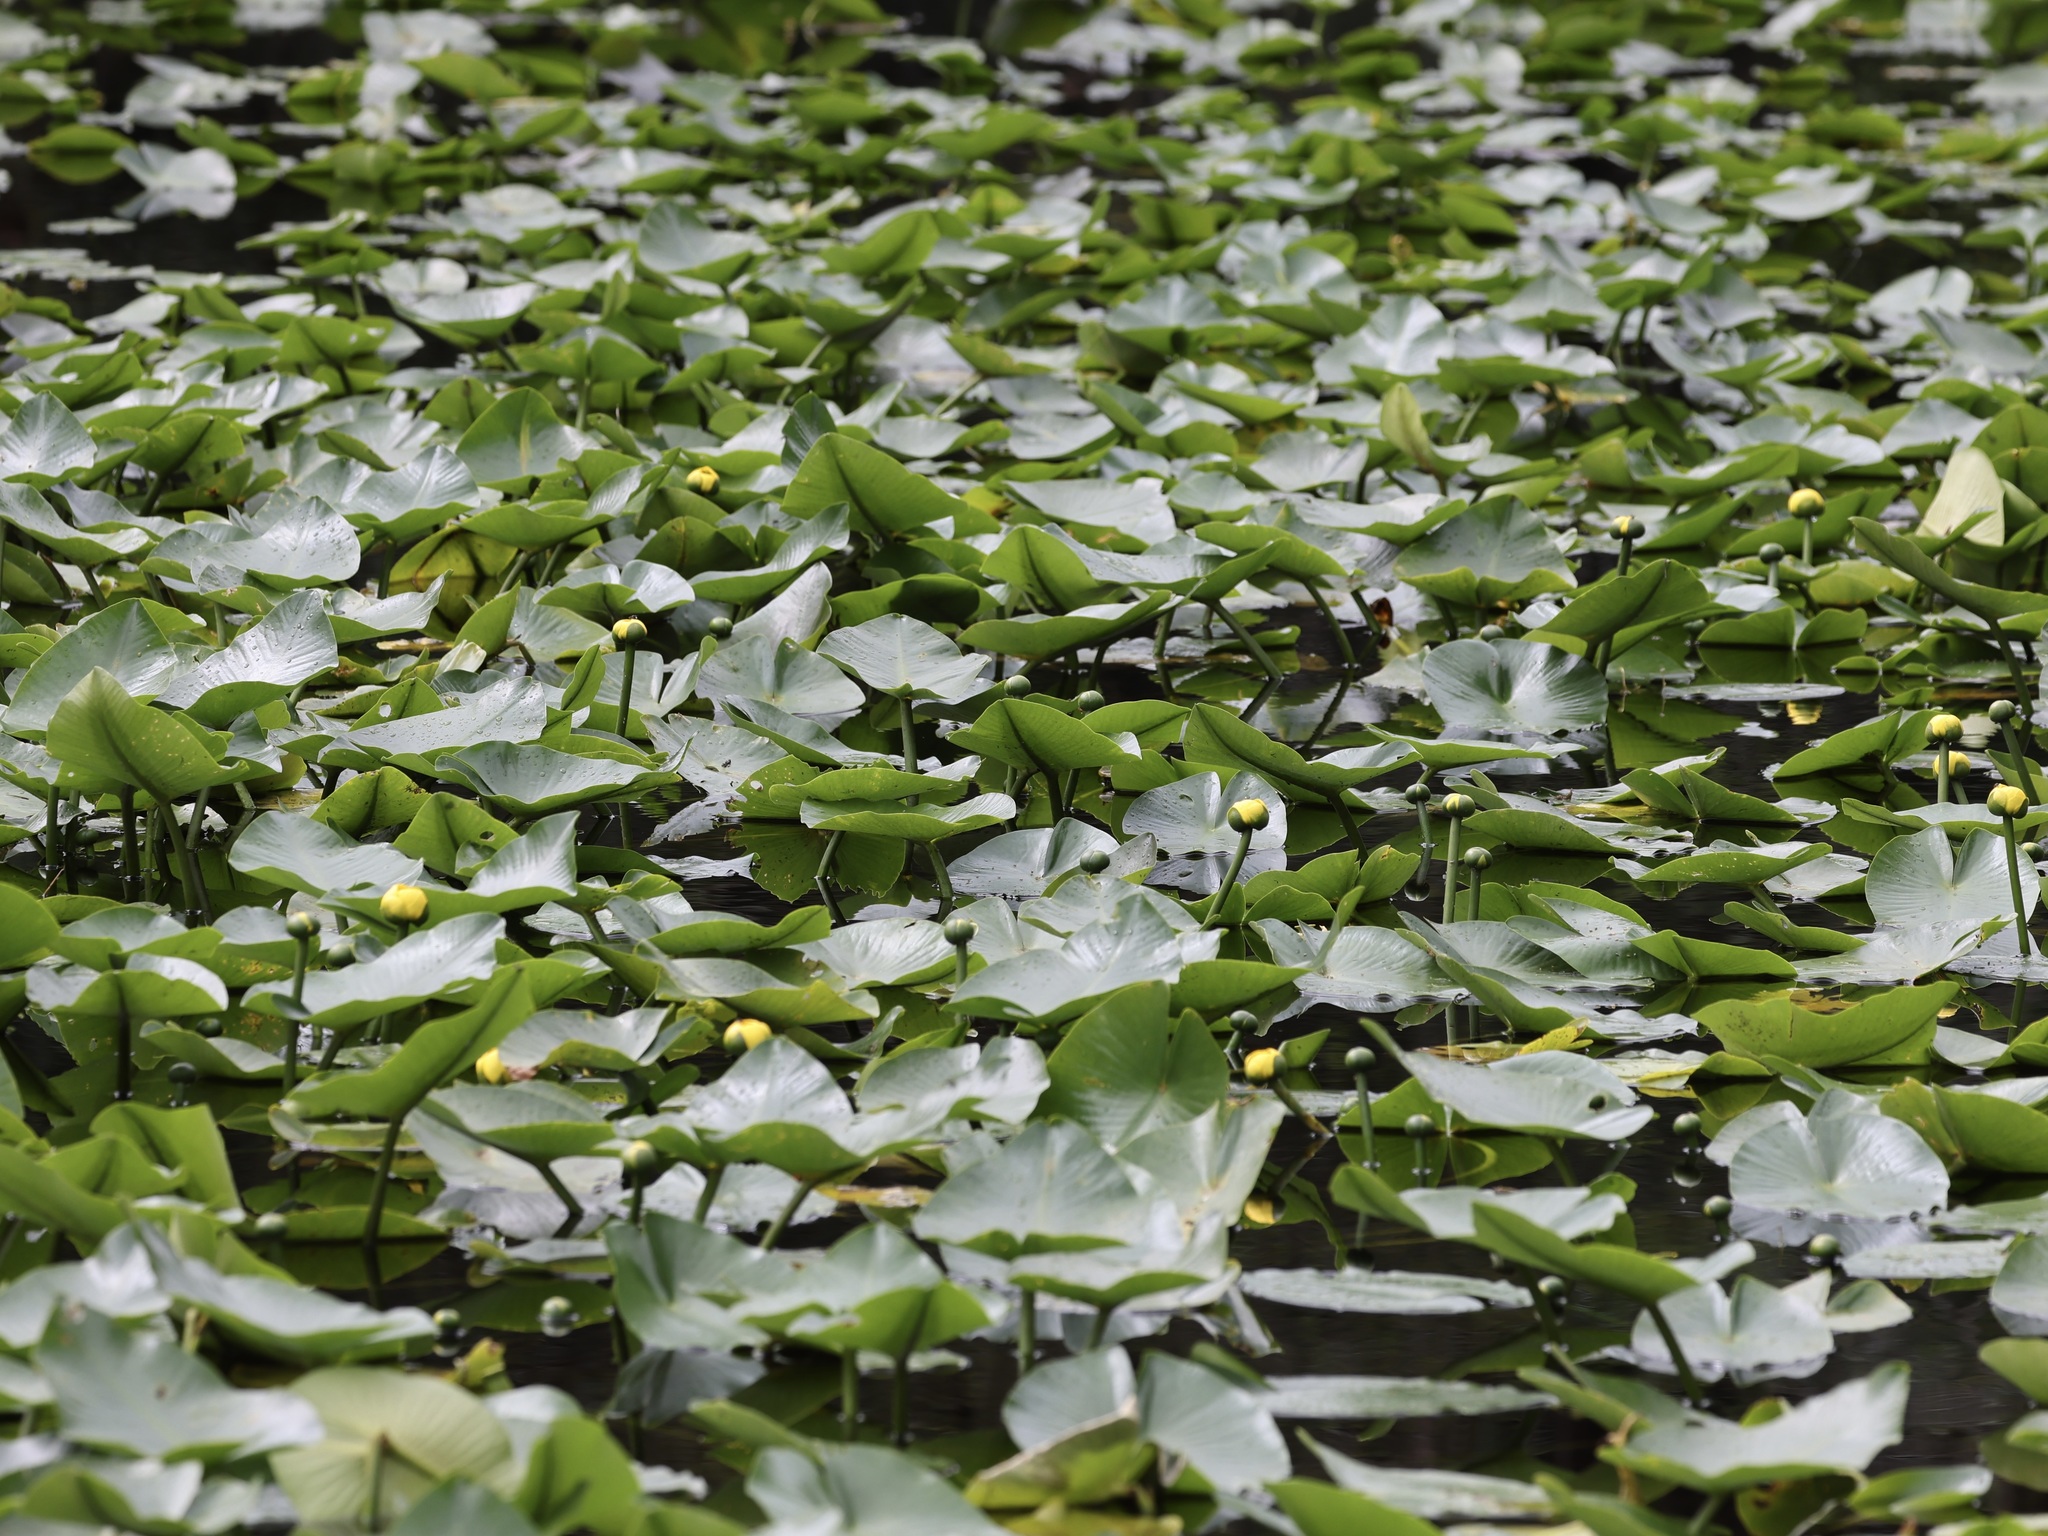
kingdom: Plantae
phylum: Tracheophyta
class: Magnoliopsida
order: Nymphaeales
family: Nymphaeaceae
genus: Nuphar
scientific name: Nuphar advena
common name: Spatter-dock
